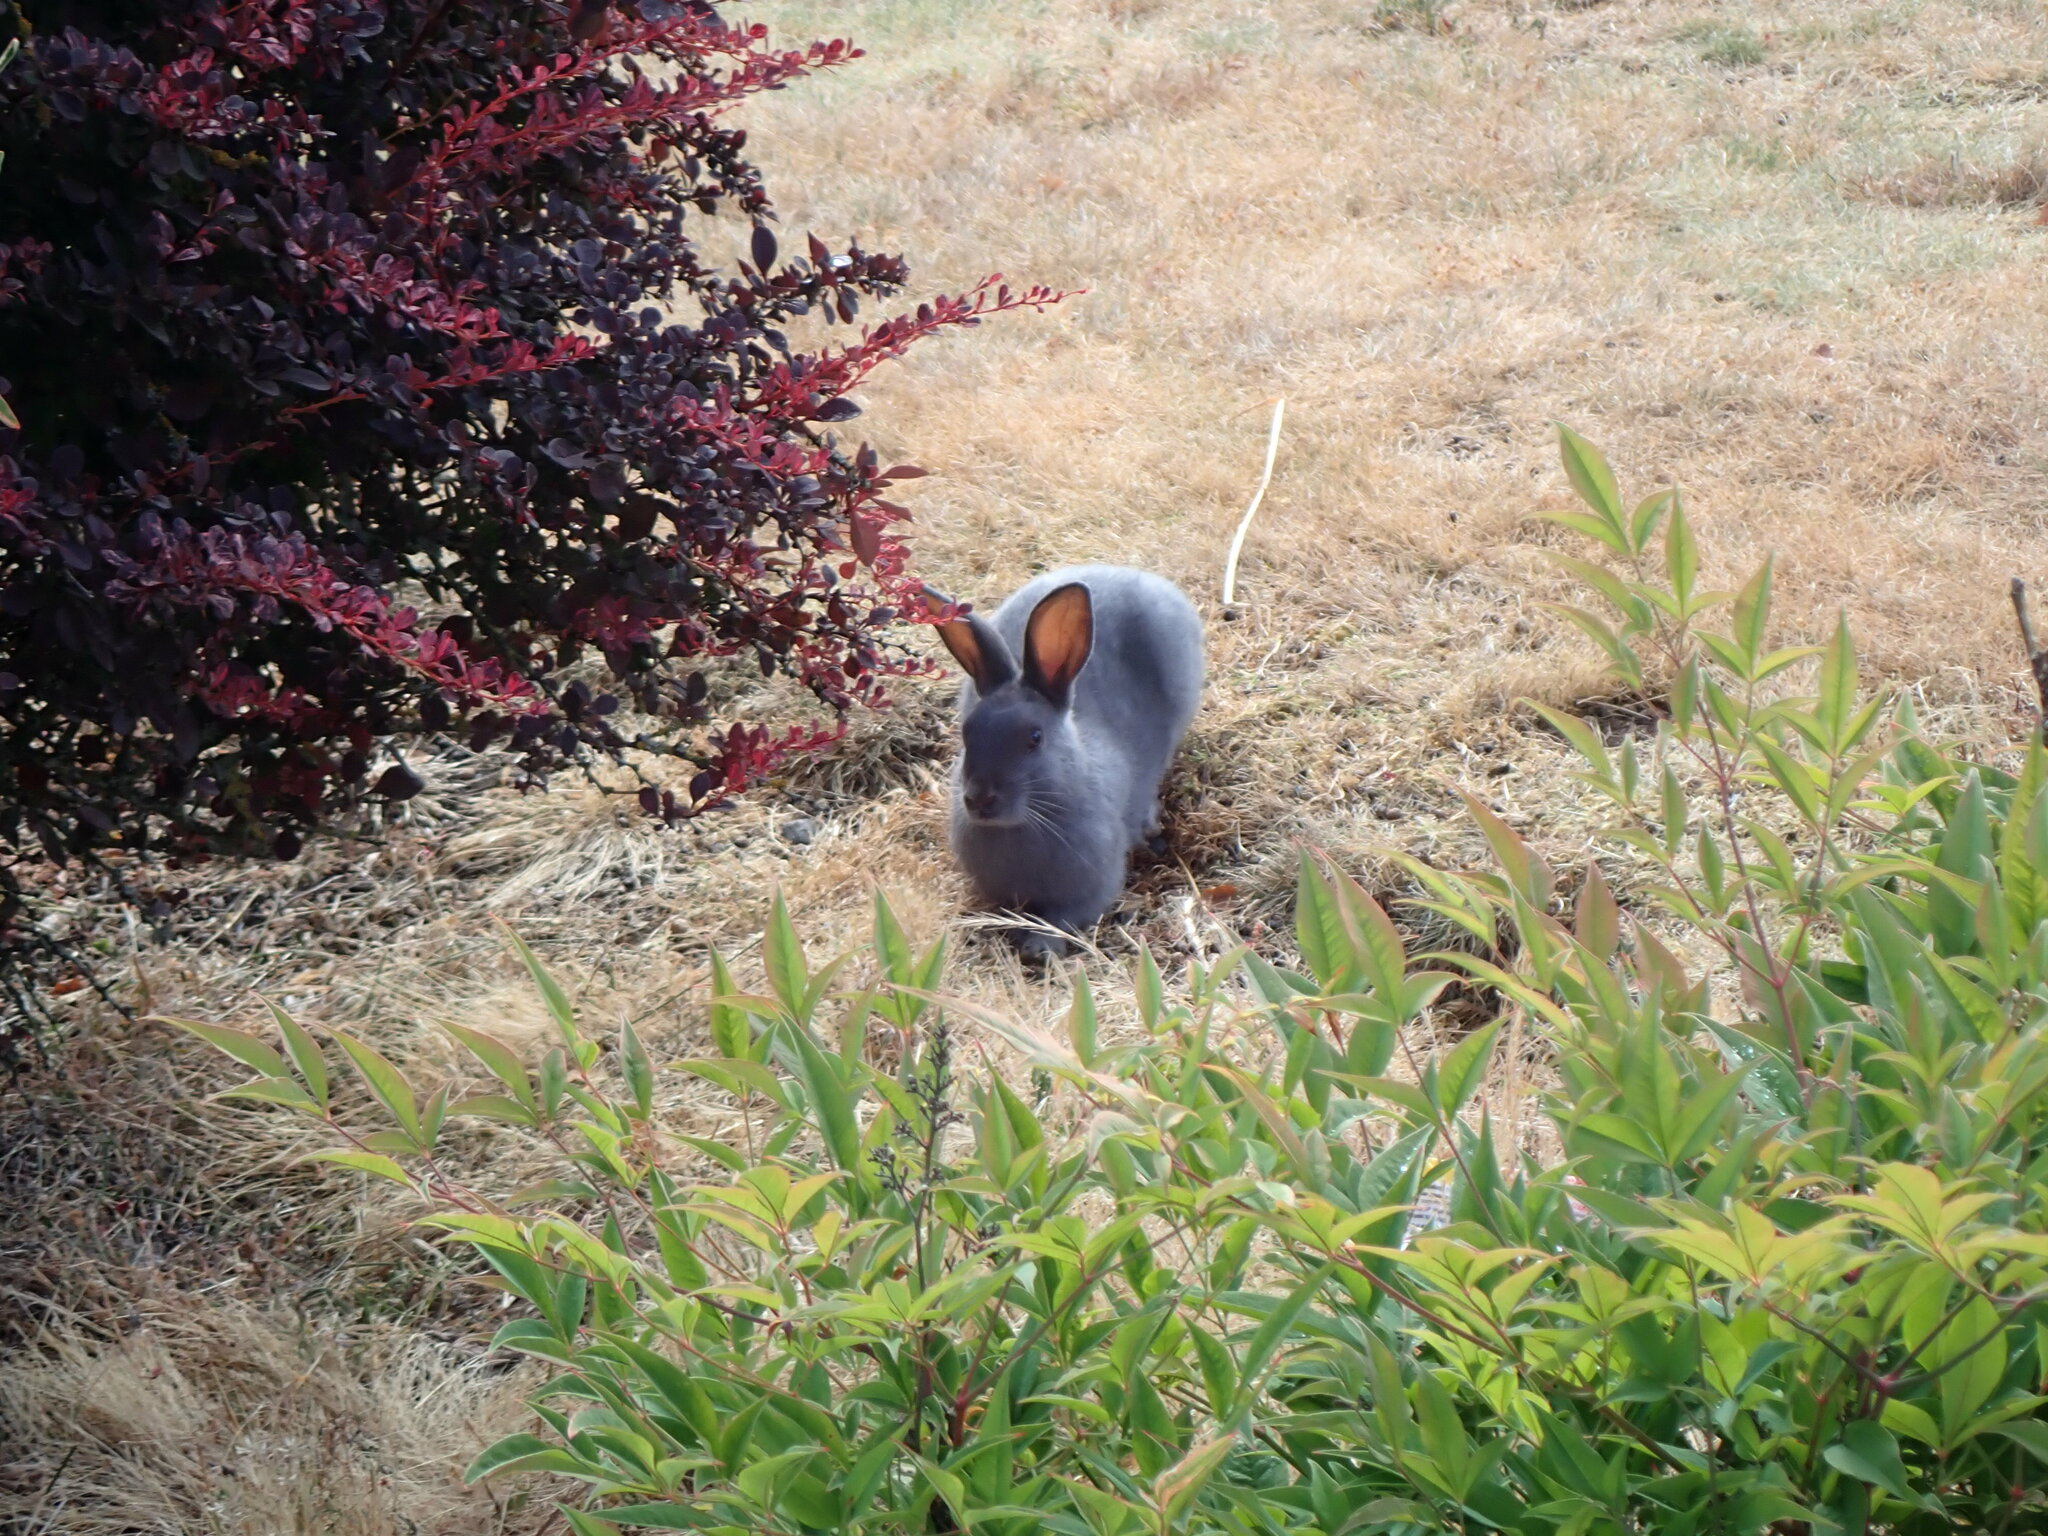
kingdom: Animalia
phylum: Chordata
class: Mammalia
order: Lagomorpha
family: Leporidae
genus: Oryctolagus
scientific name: Oryctolagus cuniculus
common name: European rabbit
